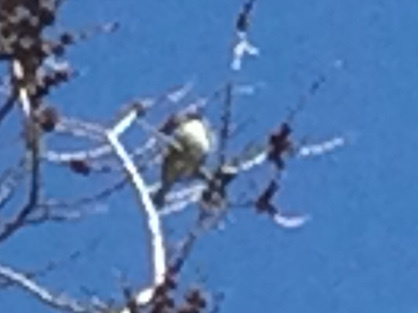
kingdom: Animalia
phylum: Chordata
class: Aves
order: Passeriformes
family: Fringillidae
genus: Spinus
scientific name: Spinus tristis
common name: American goldfinch
